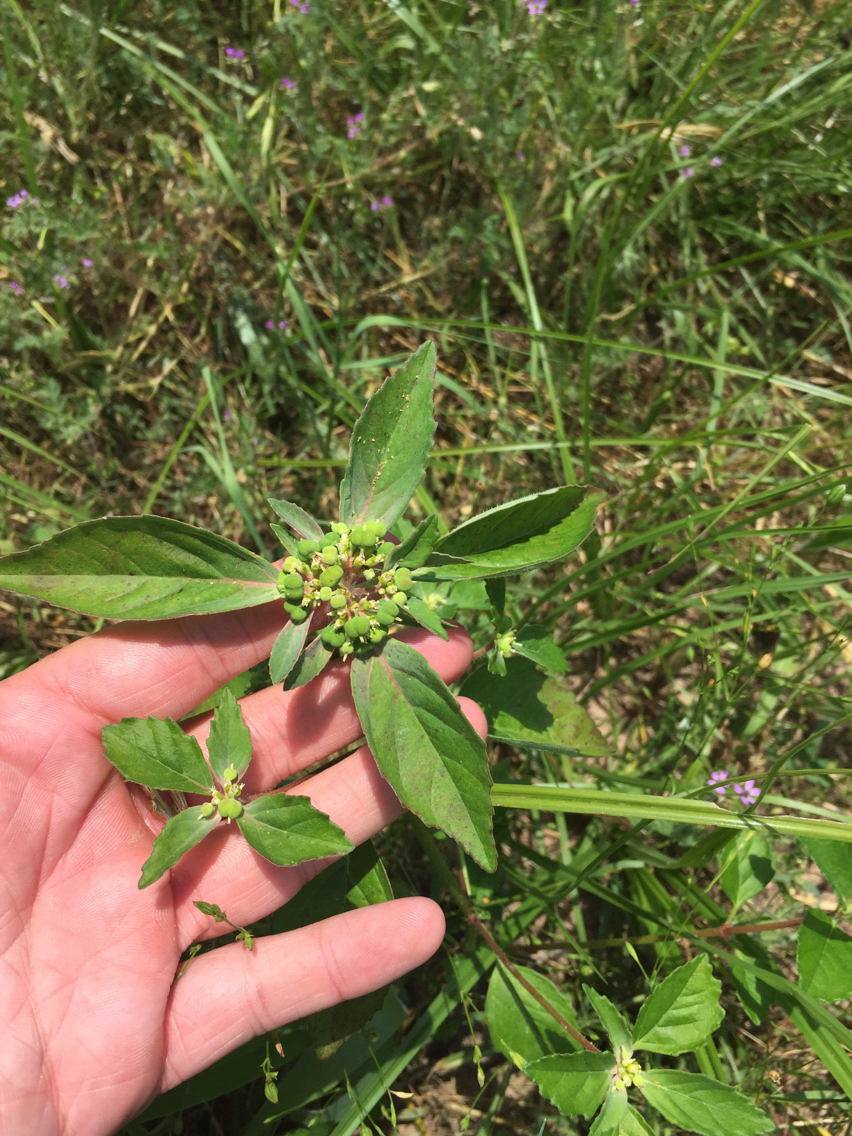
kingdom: Plantae
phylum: Tracheophyta
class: Magnoliopsida
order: Malpighiales
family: Euphorbiaceae
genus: Euphorbia
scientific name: Euphorbia dentata
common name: Dentate spurge
